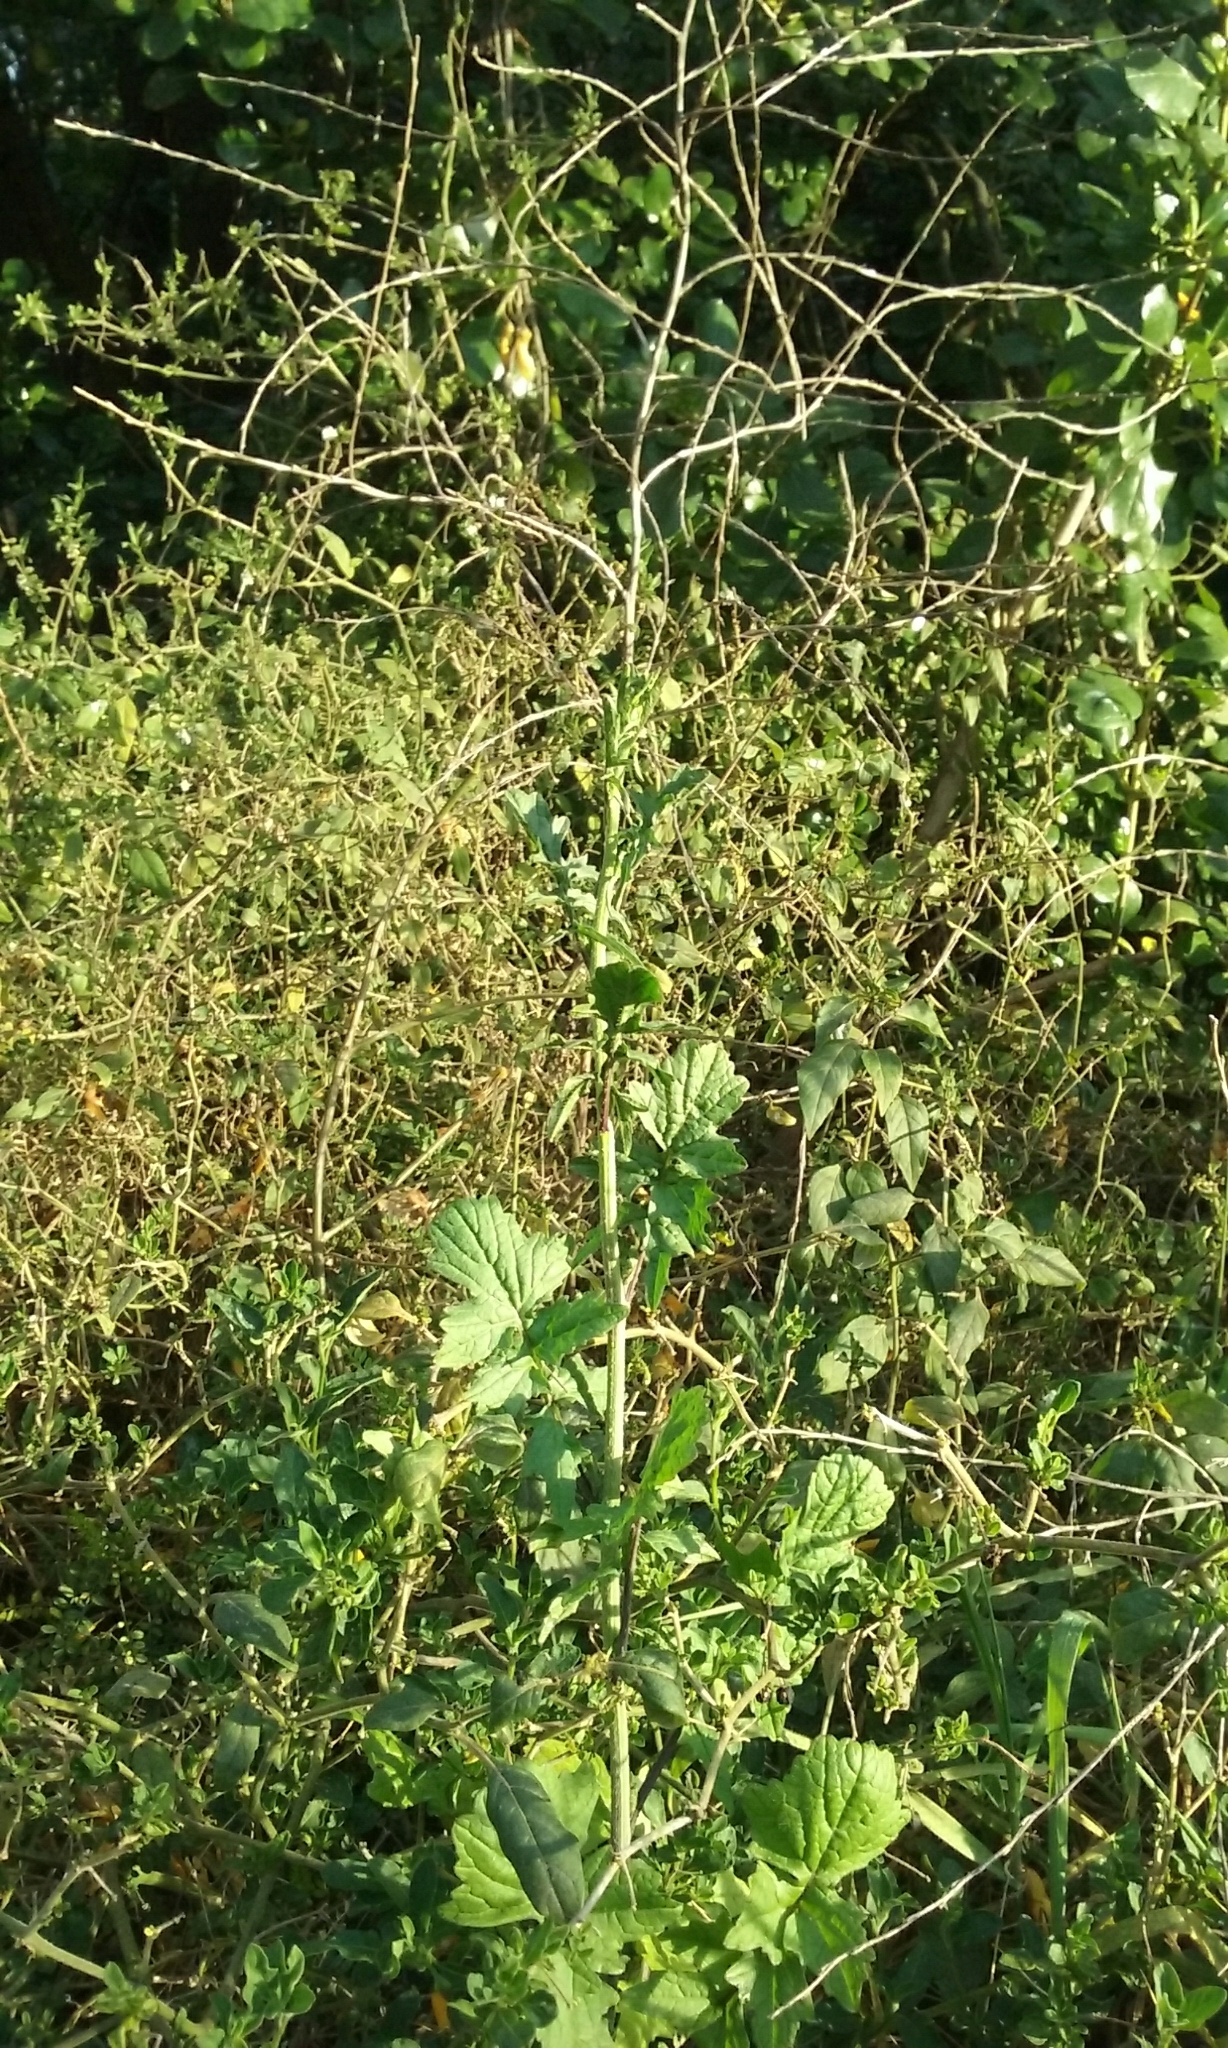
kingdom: Plantae
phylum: Tracheophyta
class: Magnoliopsida
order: Brassicales
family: Brassicaceae
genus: Sisymbrium
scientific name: Sisymbrium officinale
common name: Hedge mustard
